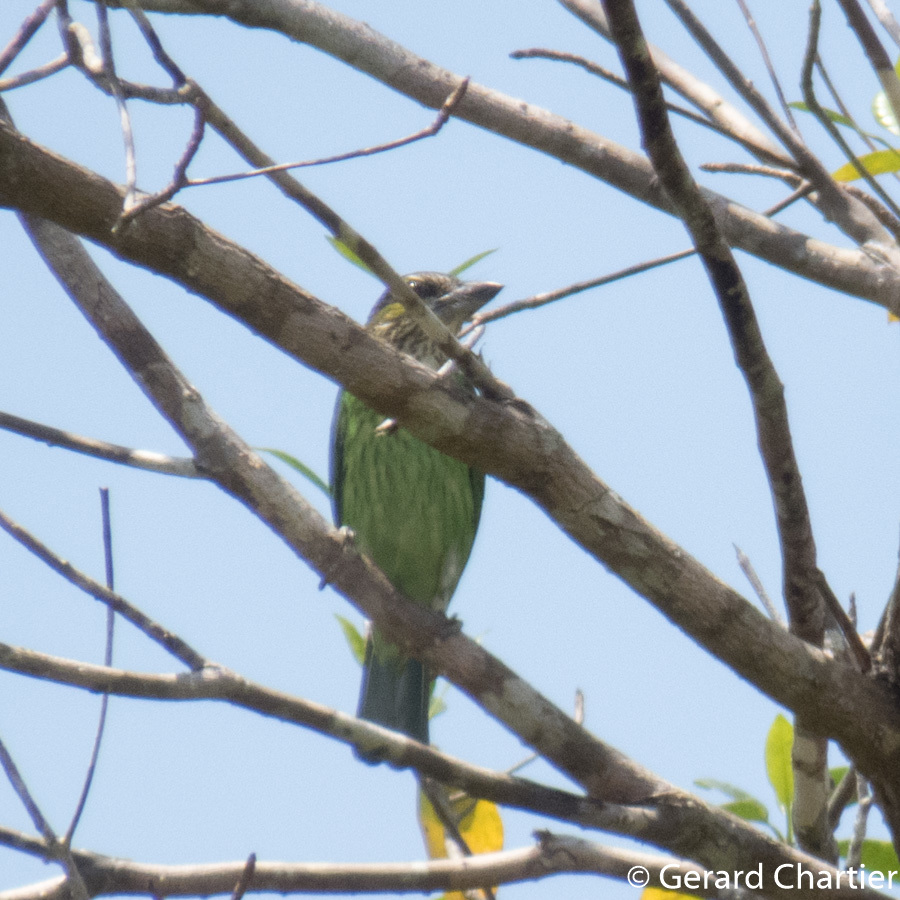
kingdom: Animalia
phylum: Chordata
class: Aves
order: Piciformes
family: Megalaimidae
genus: Psilopogon
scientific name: Psilopogon faiostrictus
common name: Green-eared barbet
